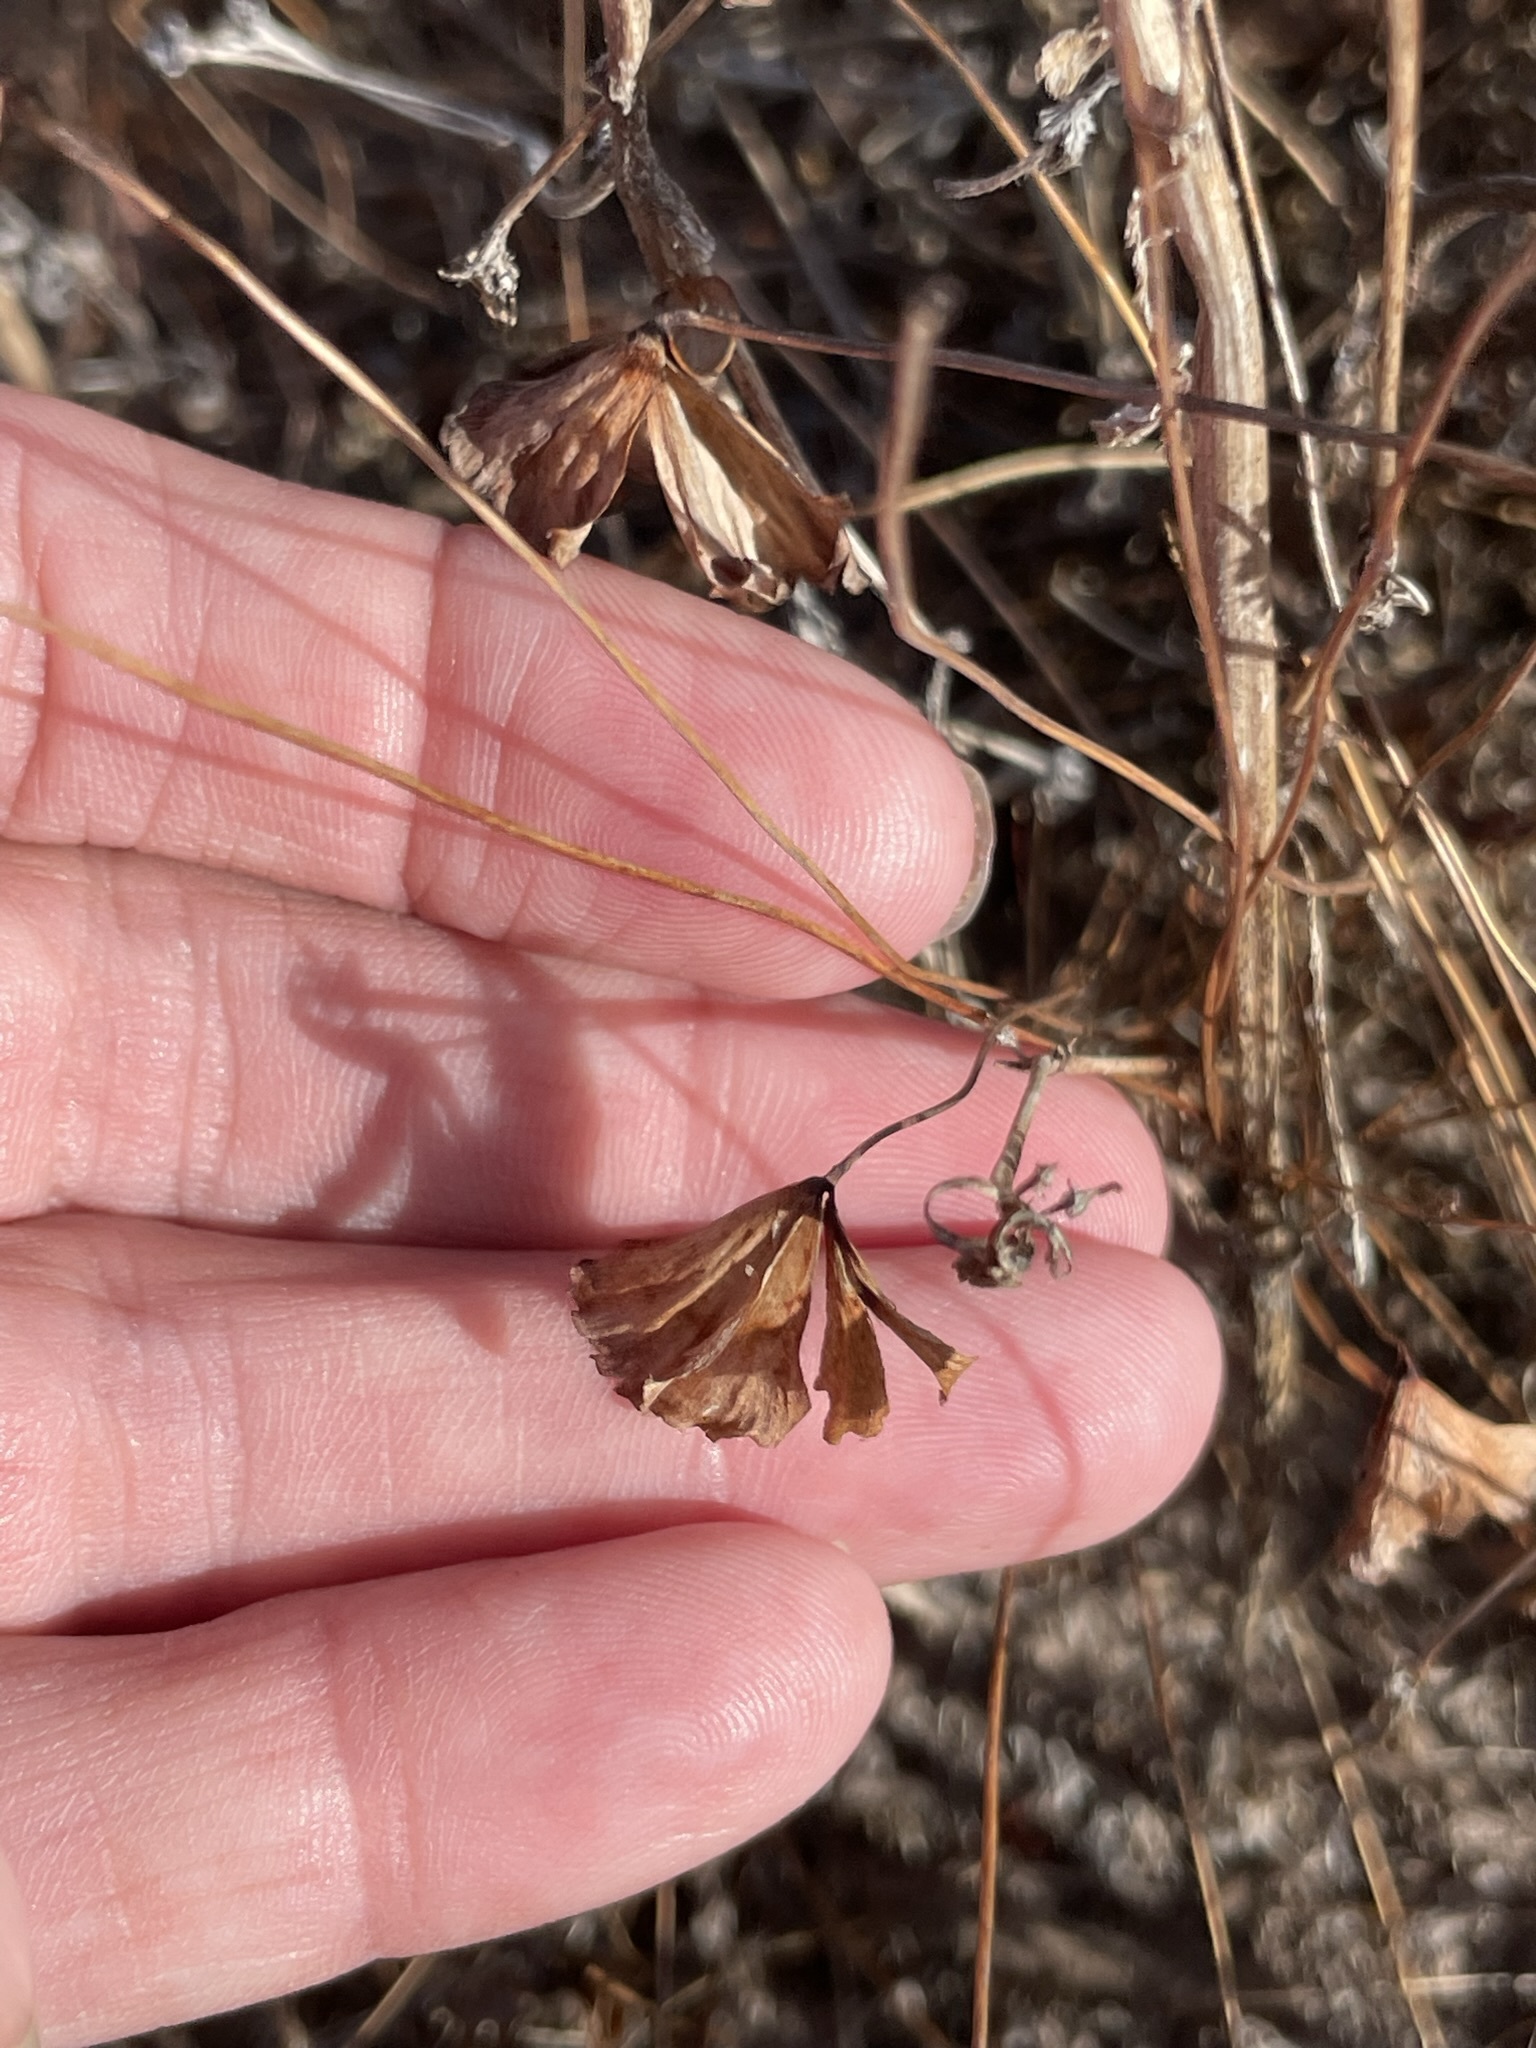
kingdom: Plantae
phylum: Tracheophyta
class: Polypodiopsida
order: Salviniales
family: Marsileaceae
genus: Marsilea
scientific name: Marsilea vestita
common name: Hooked-pepperwort
